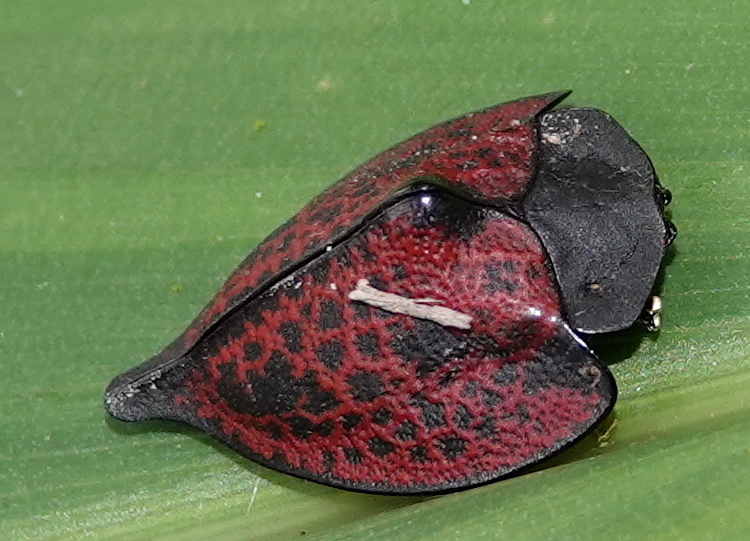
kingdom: Animalia
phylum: Arthropoda
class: Insecta
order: Coleoptera
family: Chrysomelidae
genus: Cyrtonota
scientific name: Cyrtonota caudata
